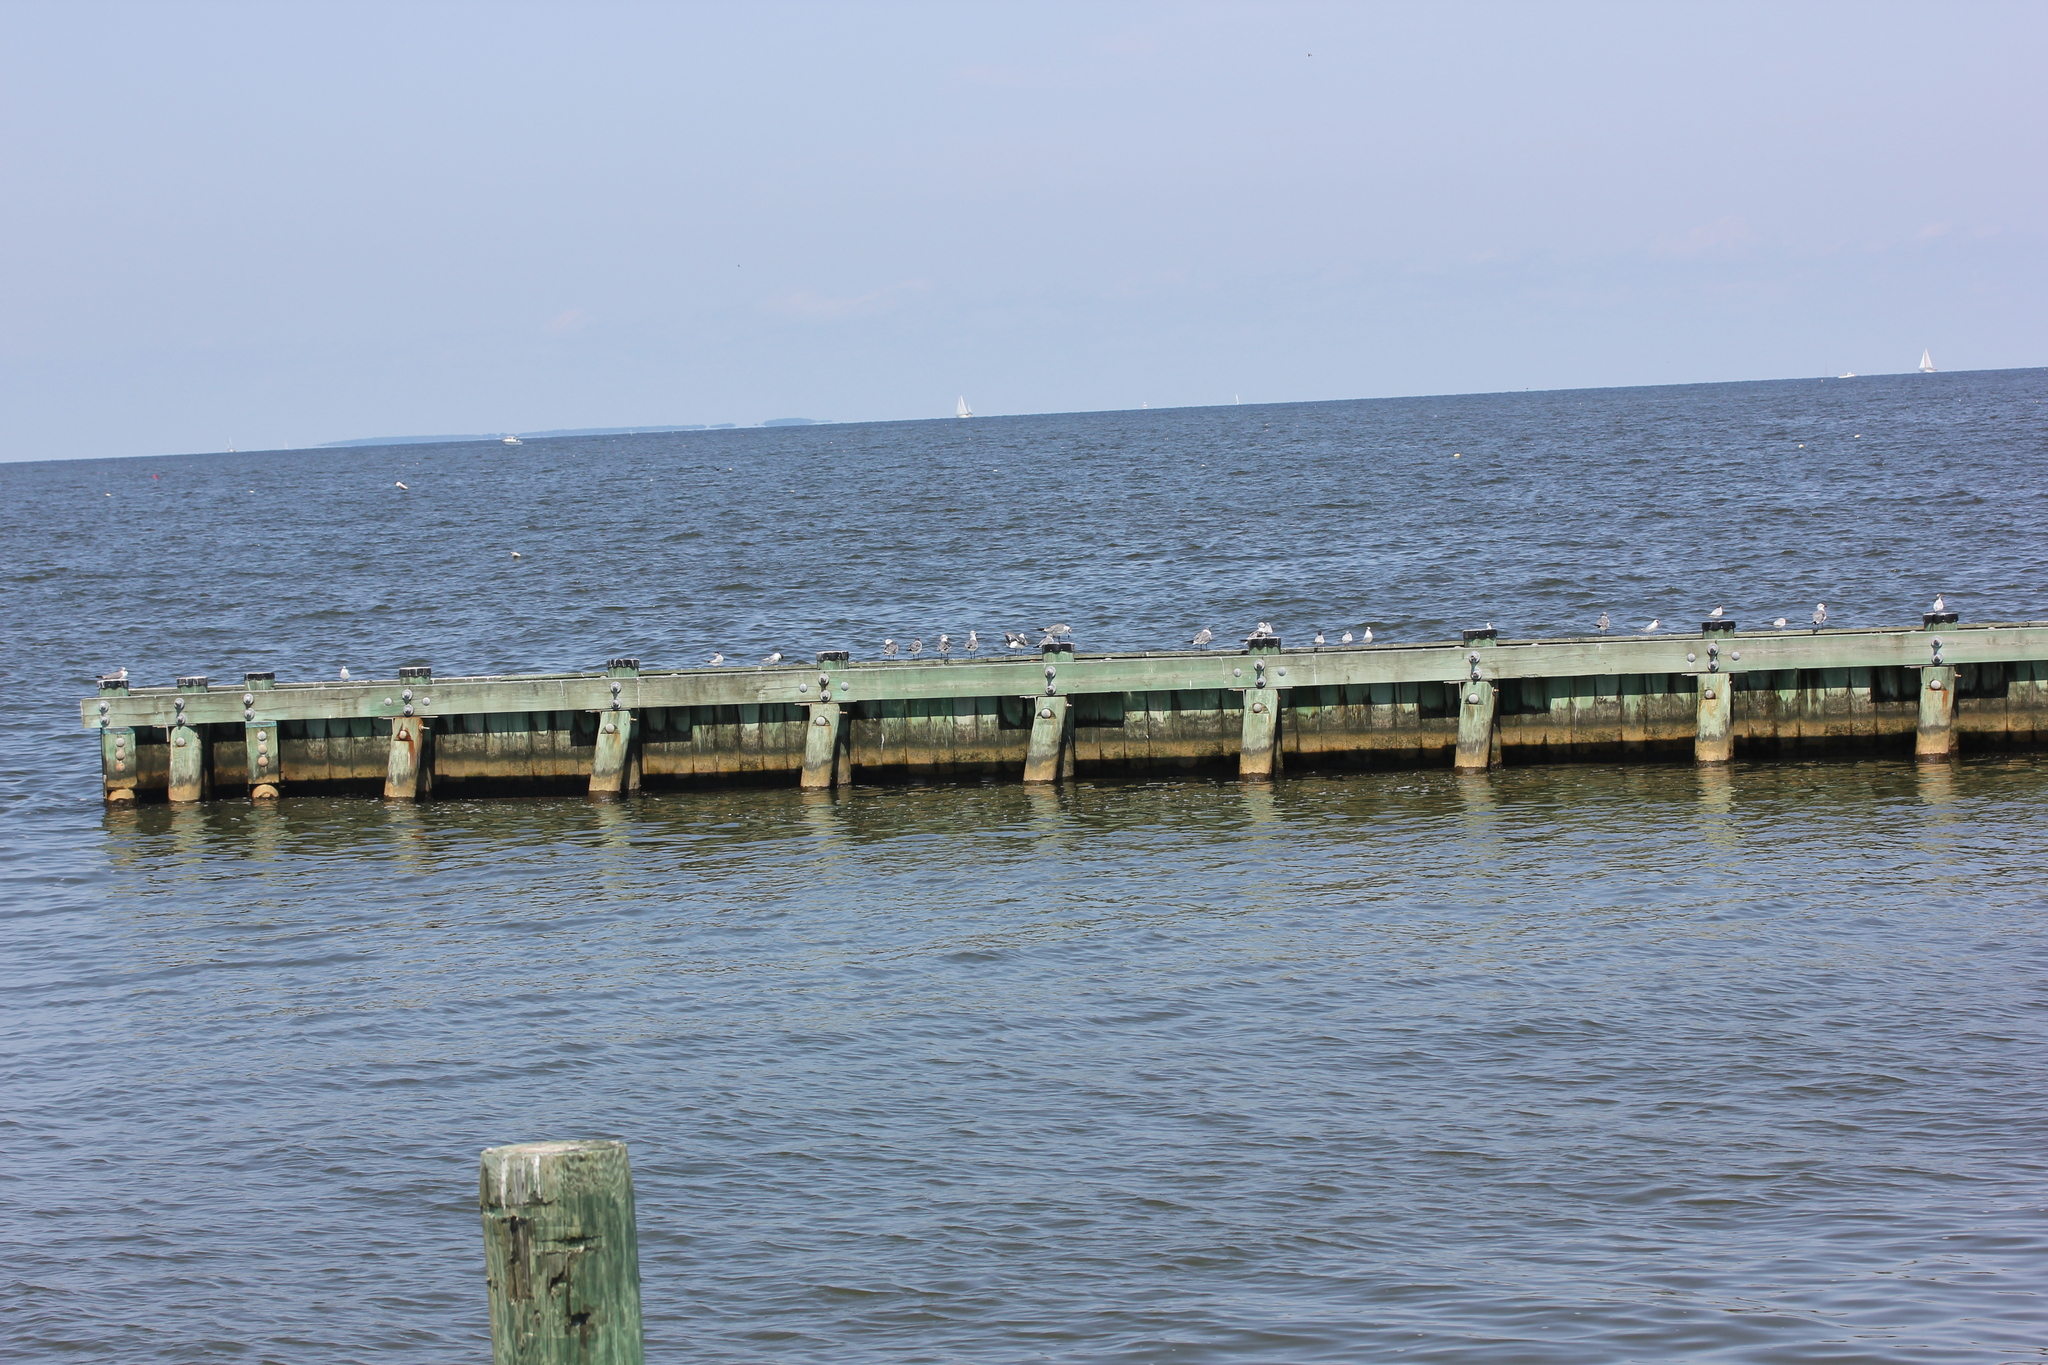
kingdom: Animalia
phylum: Chordata
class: Aves
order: Charadriiformes
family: Laridae
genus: Sterna
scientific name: Sterna forsteri
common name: Forster's tern
